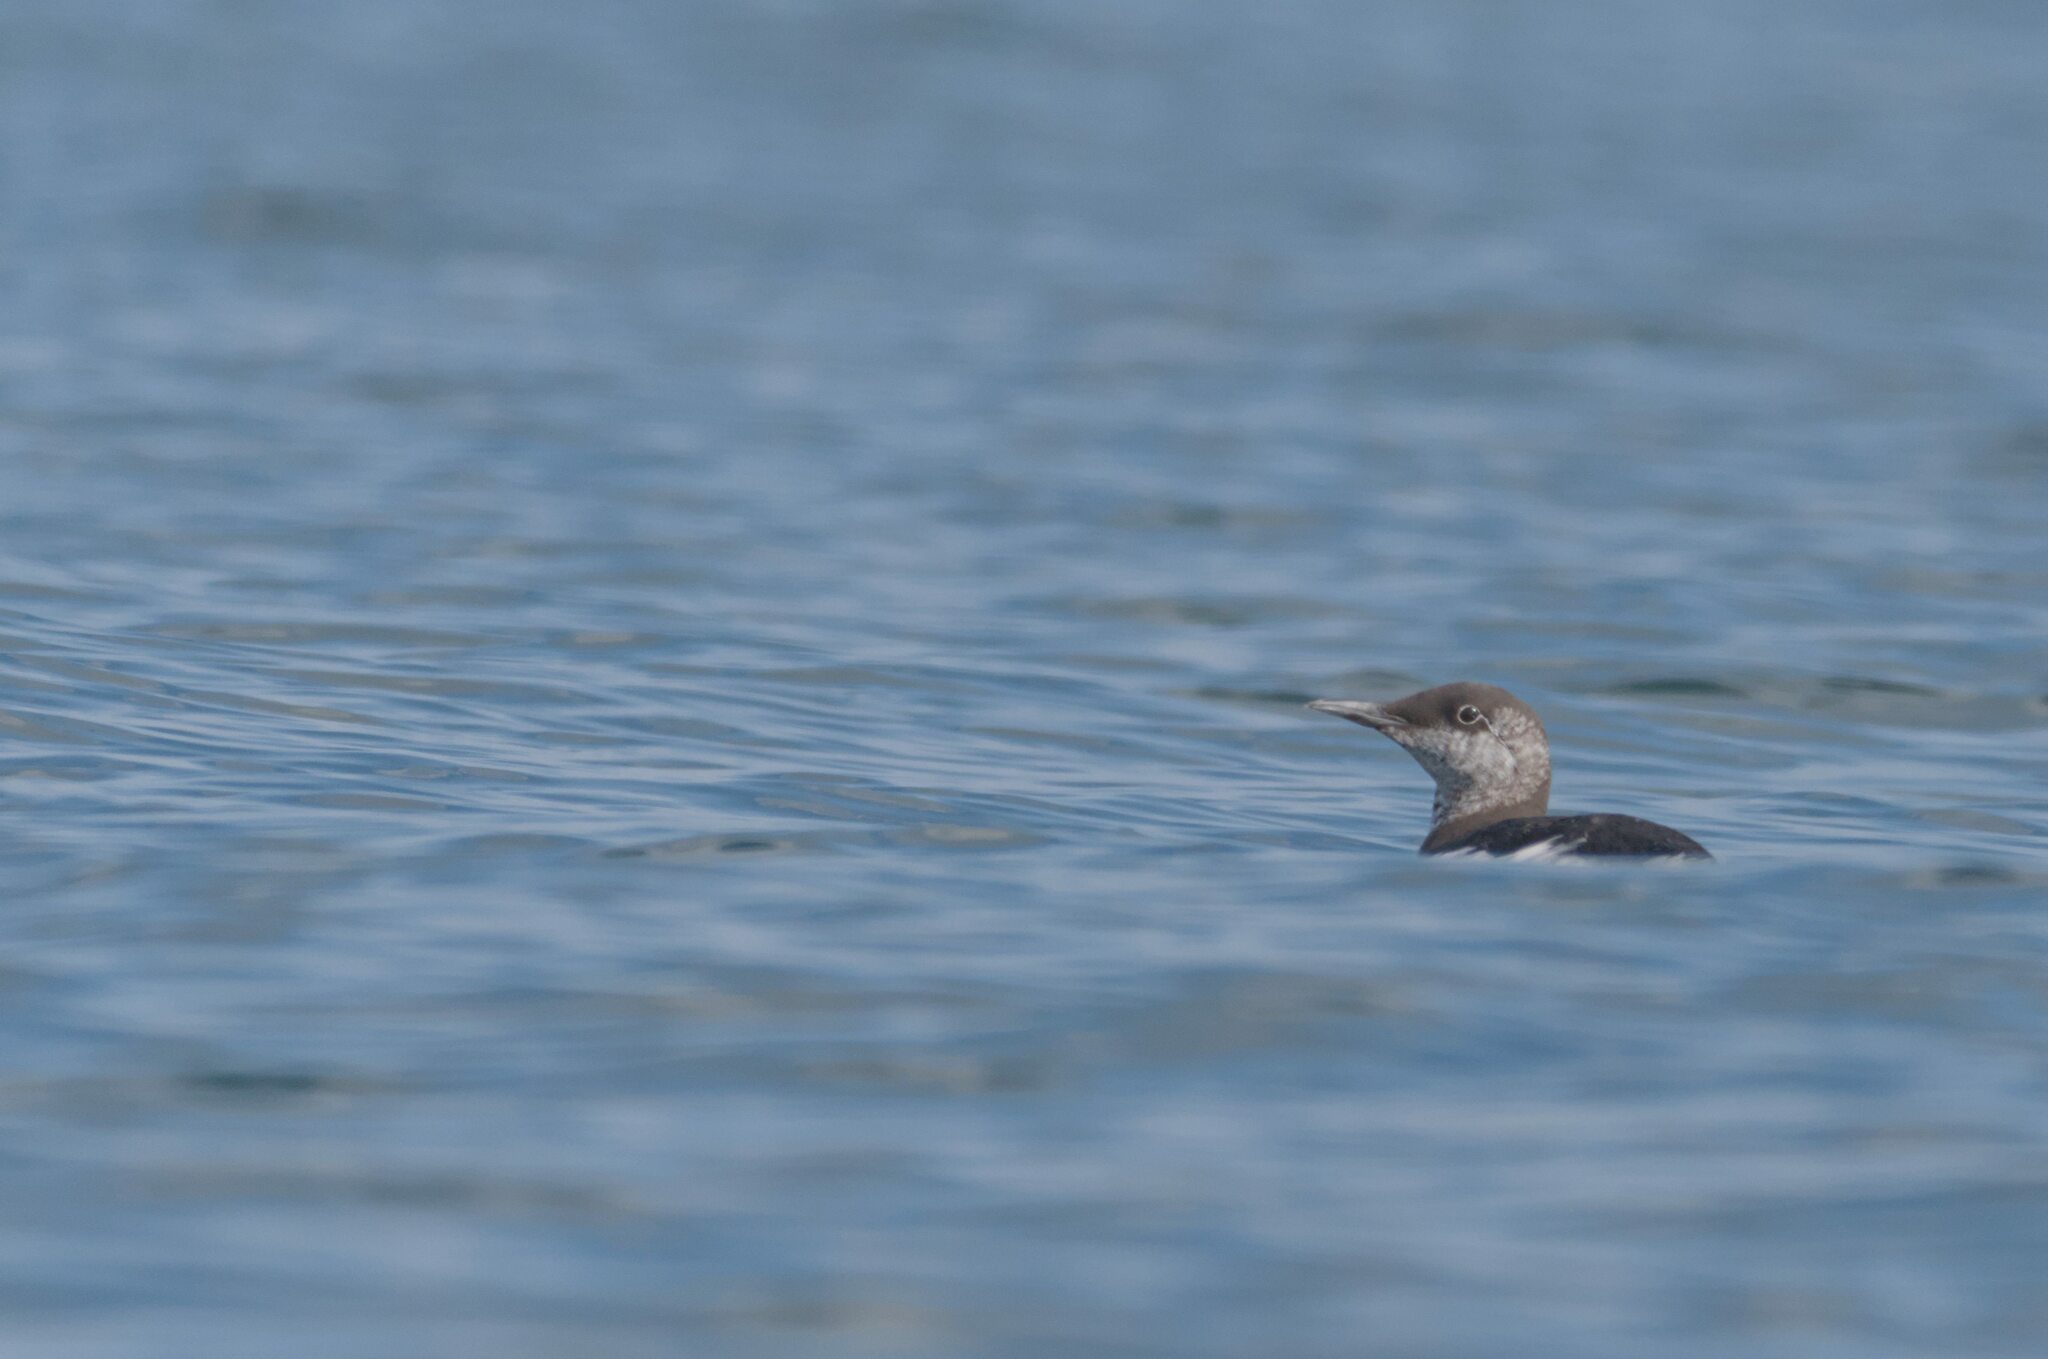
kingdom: Animalia
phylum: Chordata
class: Aves
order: Charadriiformes
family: Alcidae
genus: Uria
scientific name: Uria aalge
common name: Common murre
